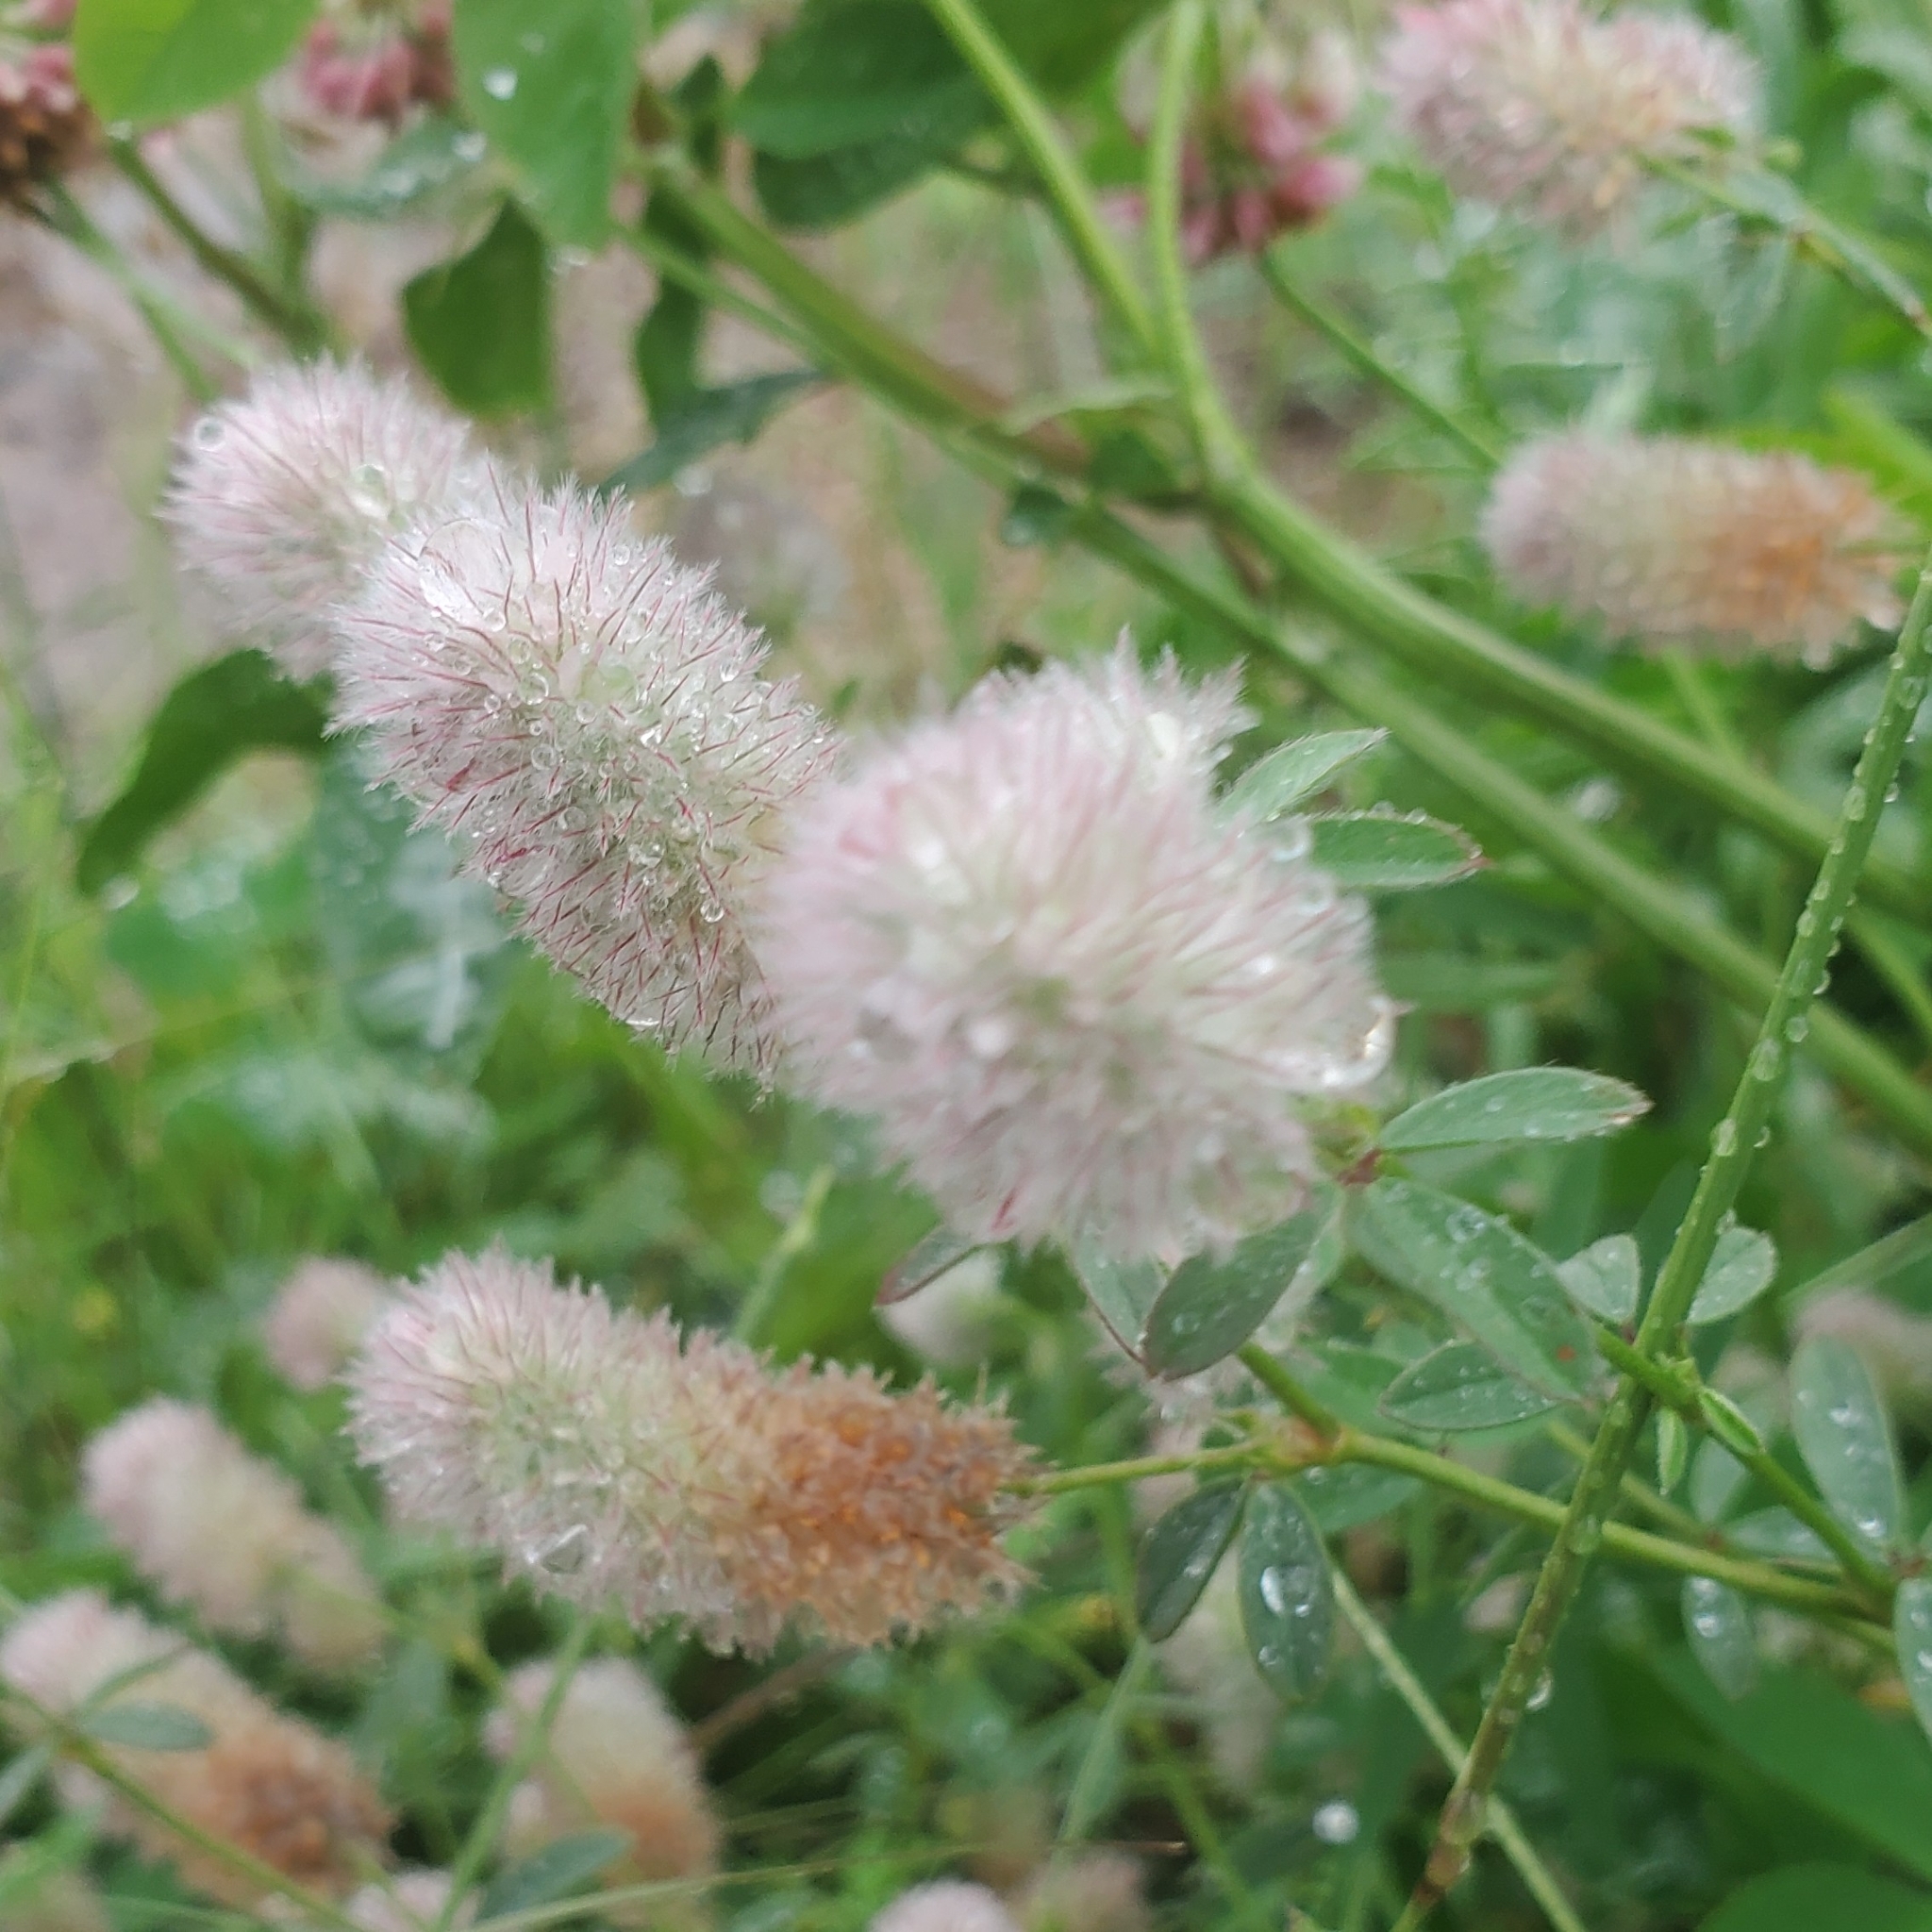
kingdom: Plantae
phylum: Tracheophyta
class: Magnoliopsida
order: Fabales
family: Fabaceae
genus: Trifolium
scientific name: Trifolium arvense
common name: Hare's-foot clover
